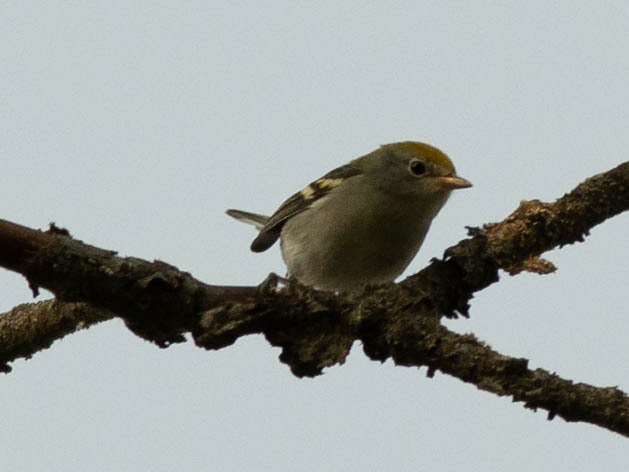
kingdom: Animalia
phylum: Chordata
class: Aves
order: Passeriformes
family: Parulidae
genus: Setophaga
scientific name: Setophaga pensylvanica
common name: Chestnut-sided warbler
